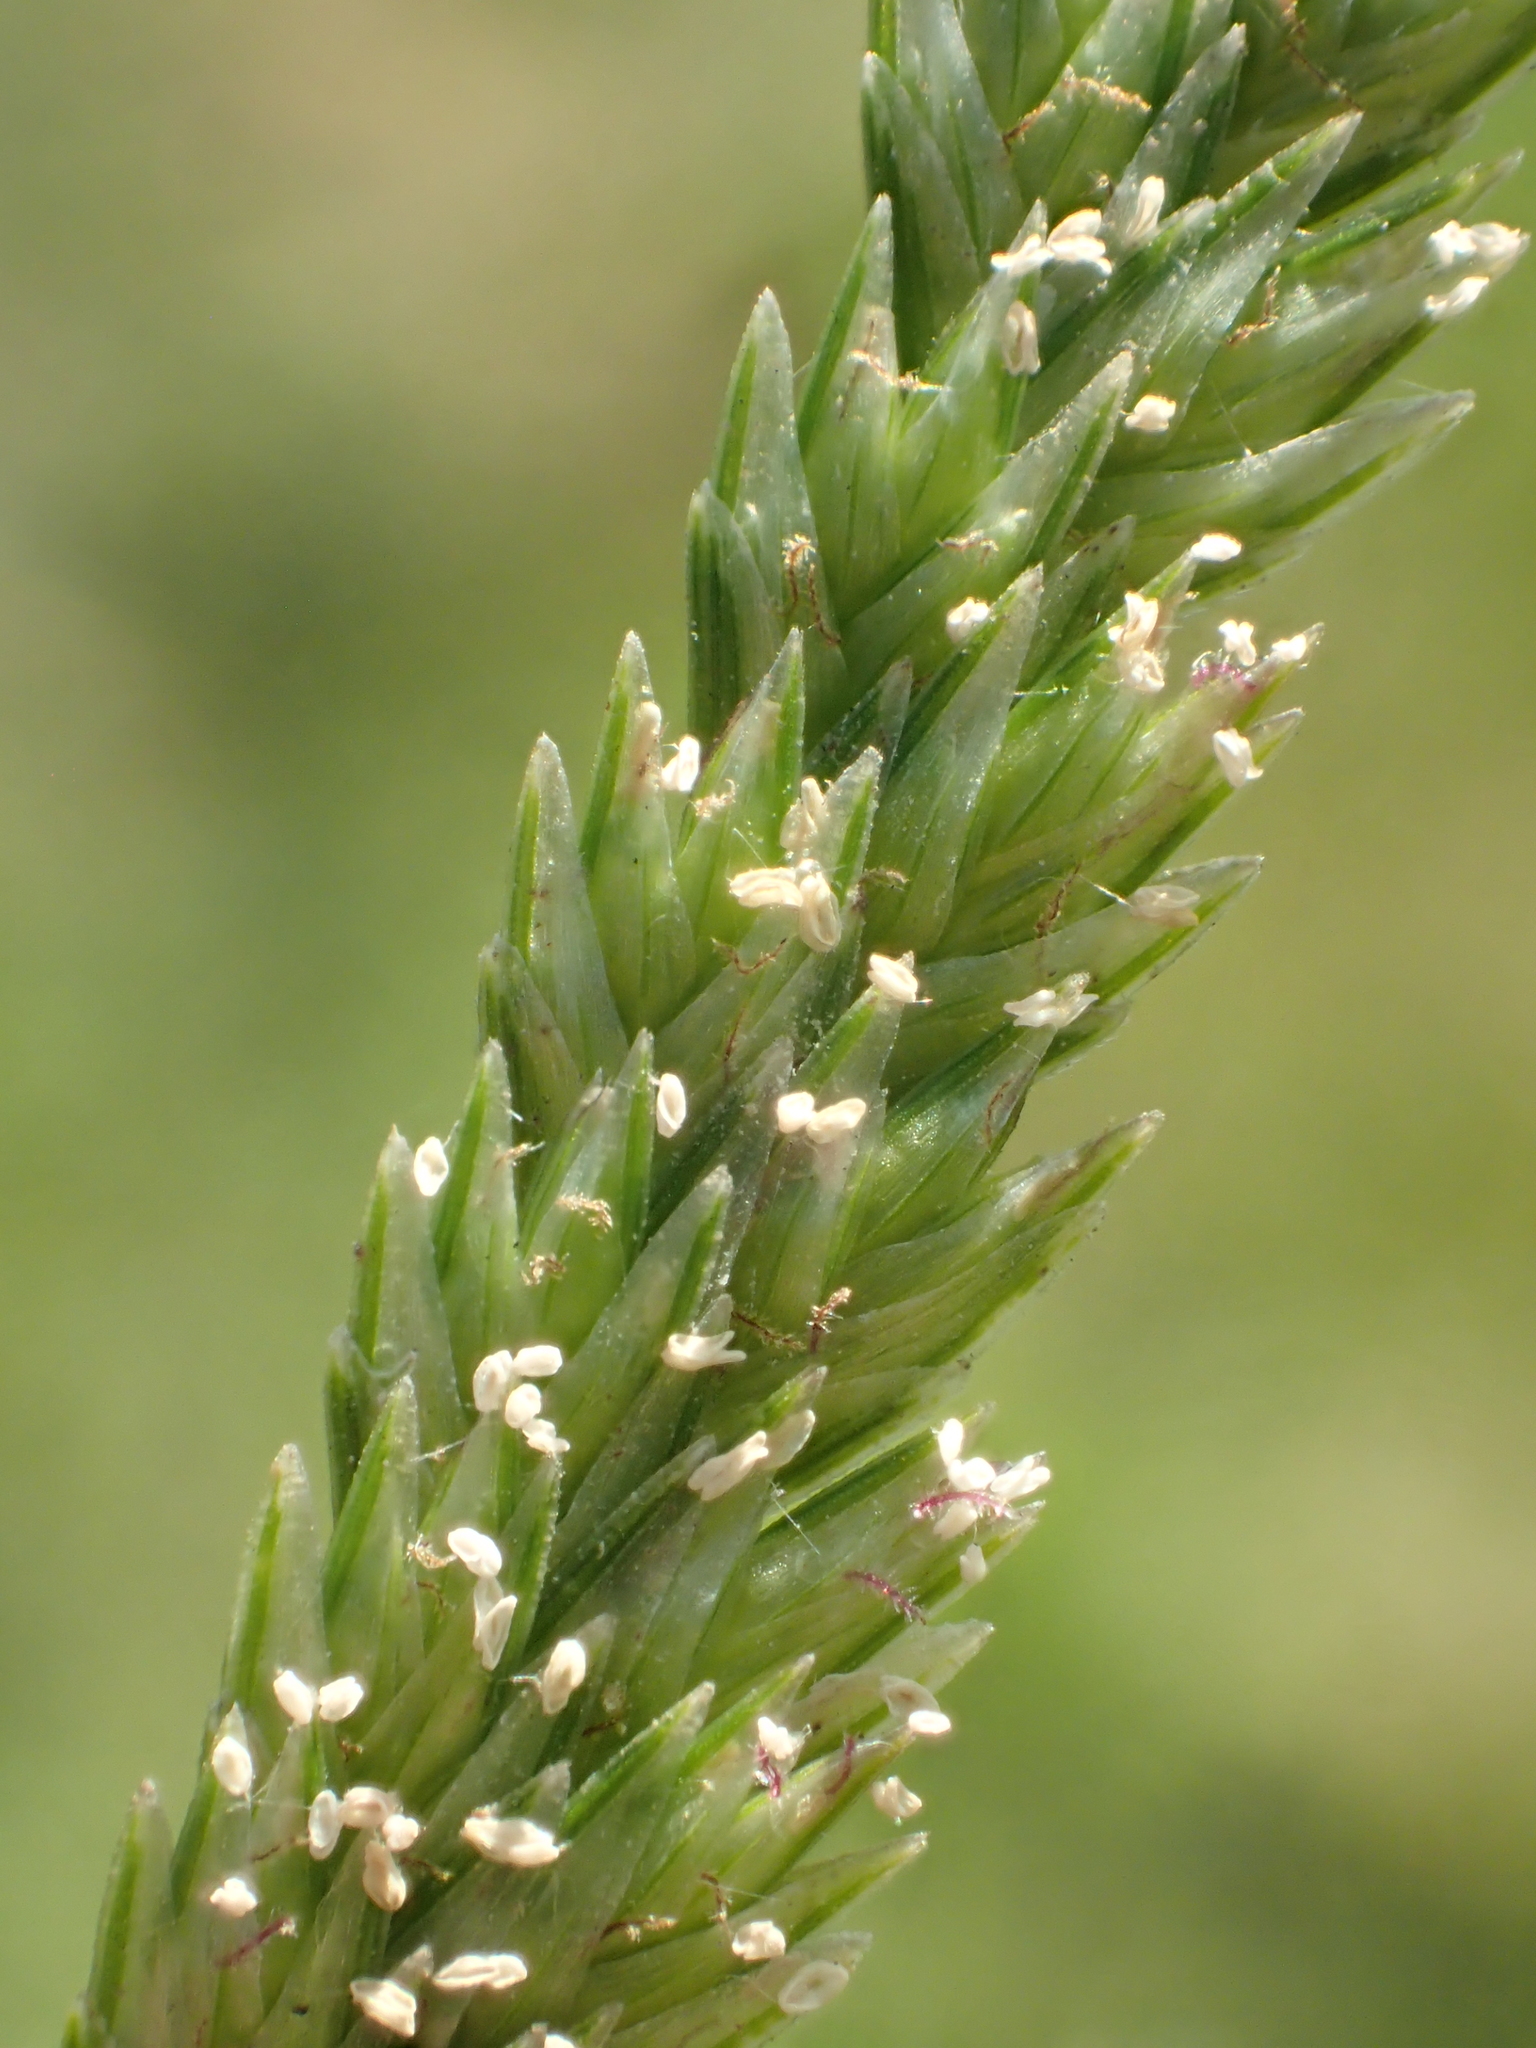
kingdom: Plantae
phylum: Tracheophyta
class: Liliopsida
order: Poales
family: Poaceae
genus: Eleusine
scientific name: Eleusine indica
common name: Yard-grass
